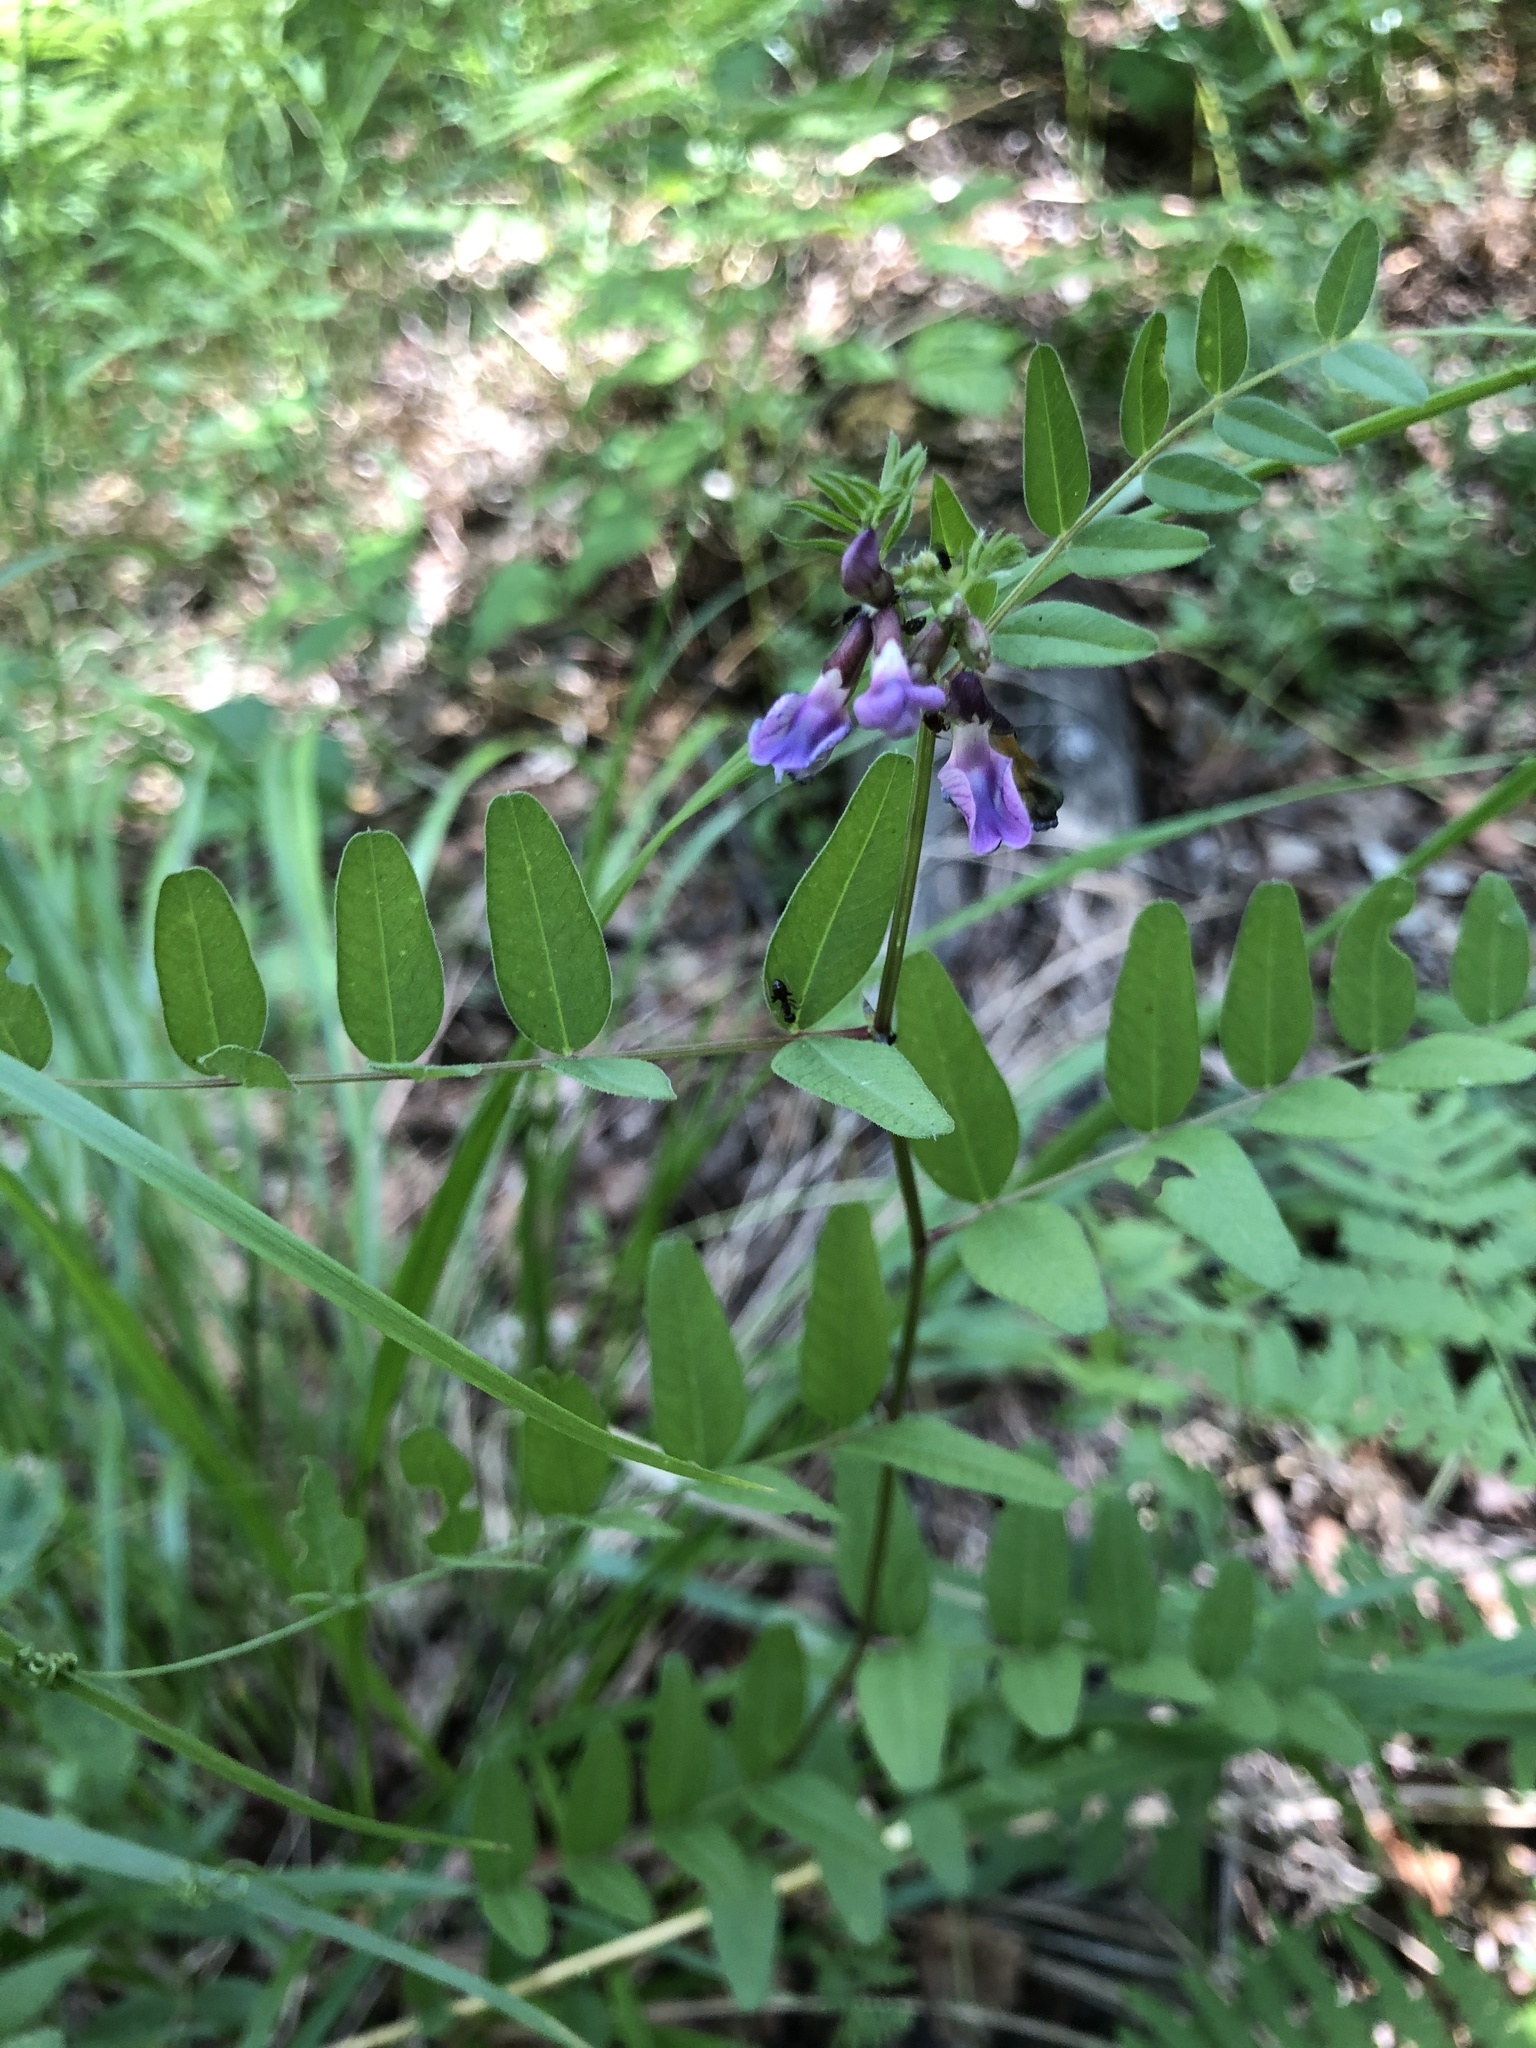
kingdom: Plantae
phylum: Tracheophyta
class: Magnoliopsida
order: Fabales
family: Fabaceae
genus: Vicia
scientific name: Vicia sepium
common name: Bush vetch
